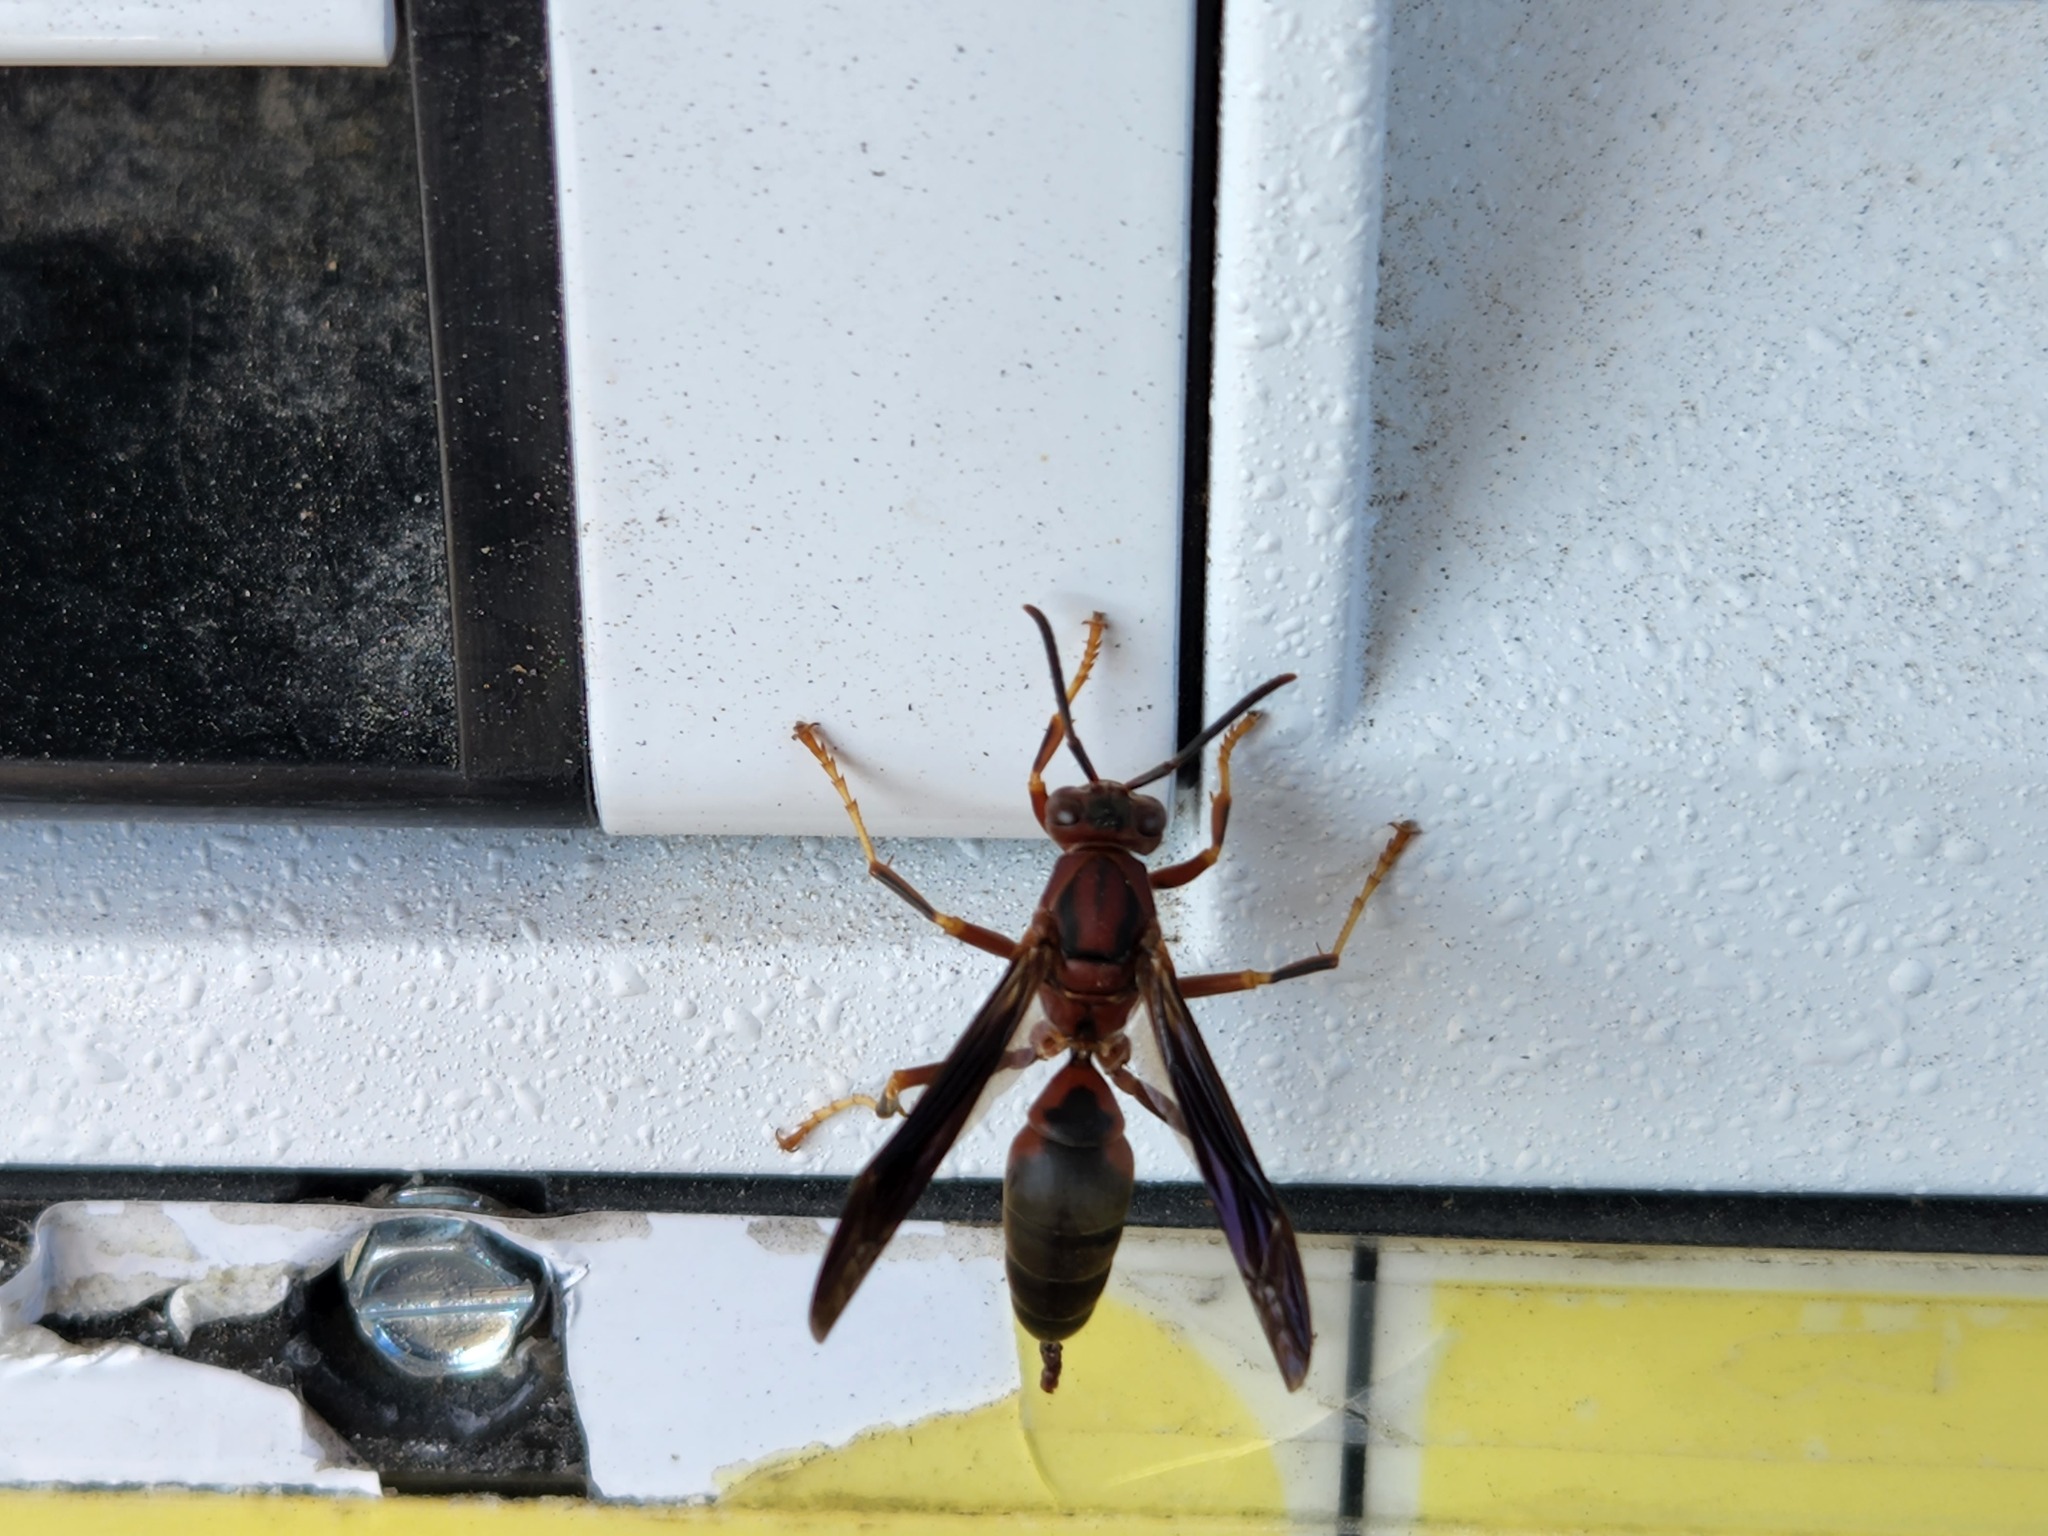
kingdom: Animalia
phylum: Arthropoda
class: Insecta
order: Hymenoptera
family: Eumenidae
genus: Polistes
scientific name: Polistes metricus
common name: Metric paper wasp
